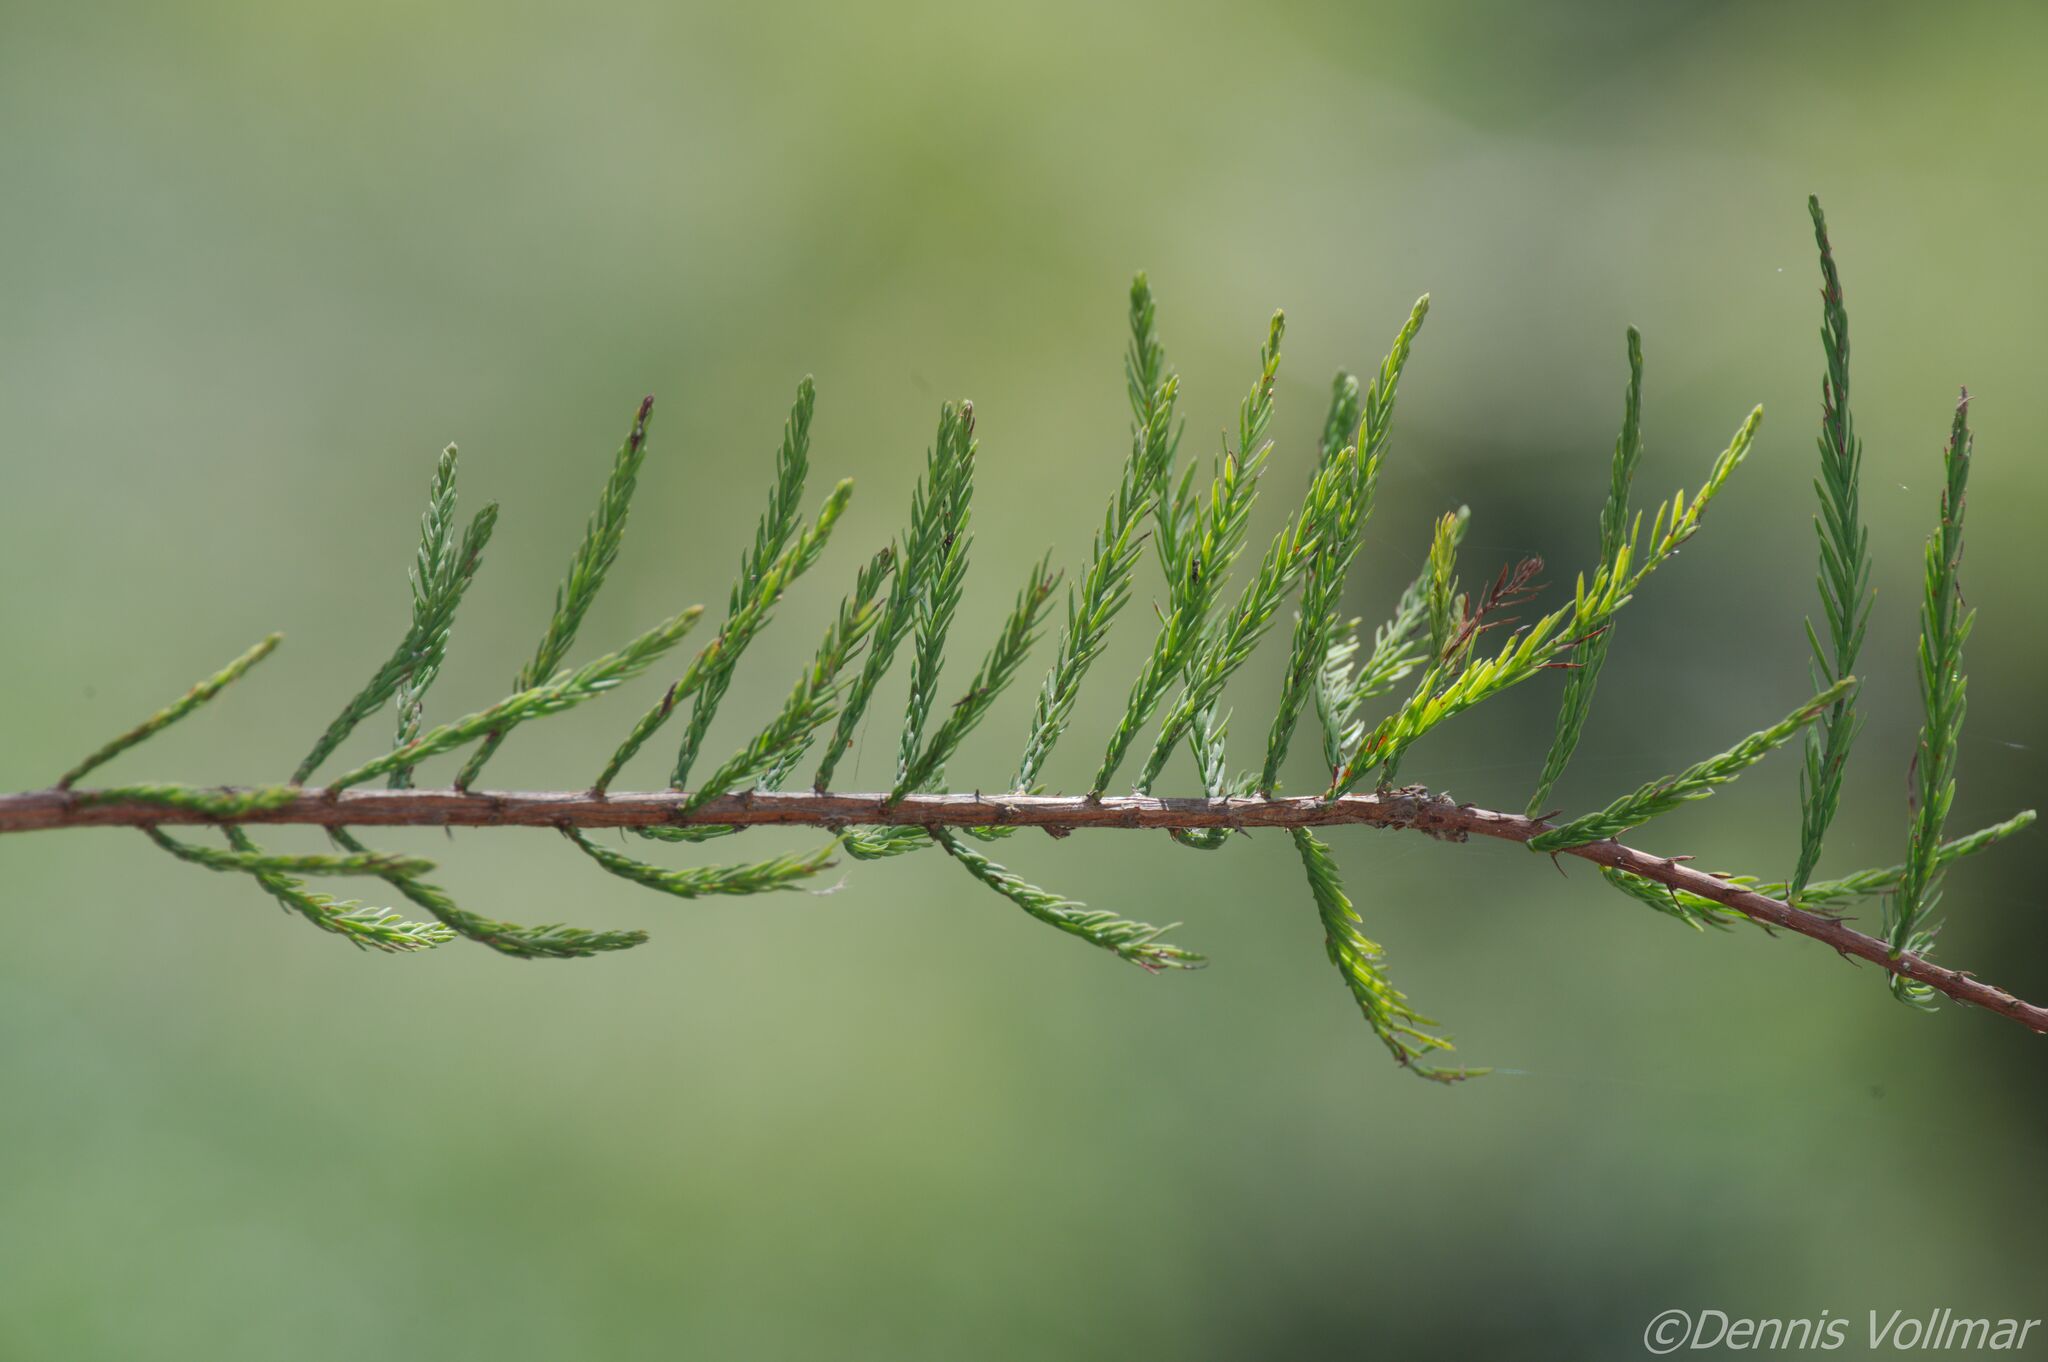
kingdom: Plantae
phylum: Tracheophyta
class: Pinopsida
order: Pinales
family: Cupressaceae
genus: Taxodium
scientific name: Taxodium distichum
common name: Bald cypress
